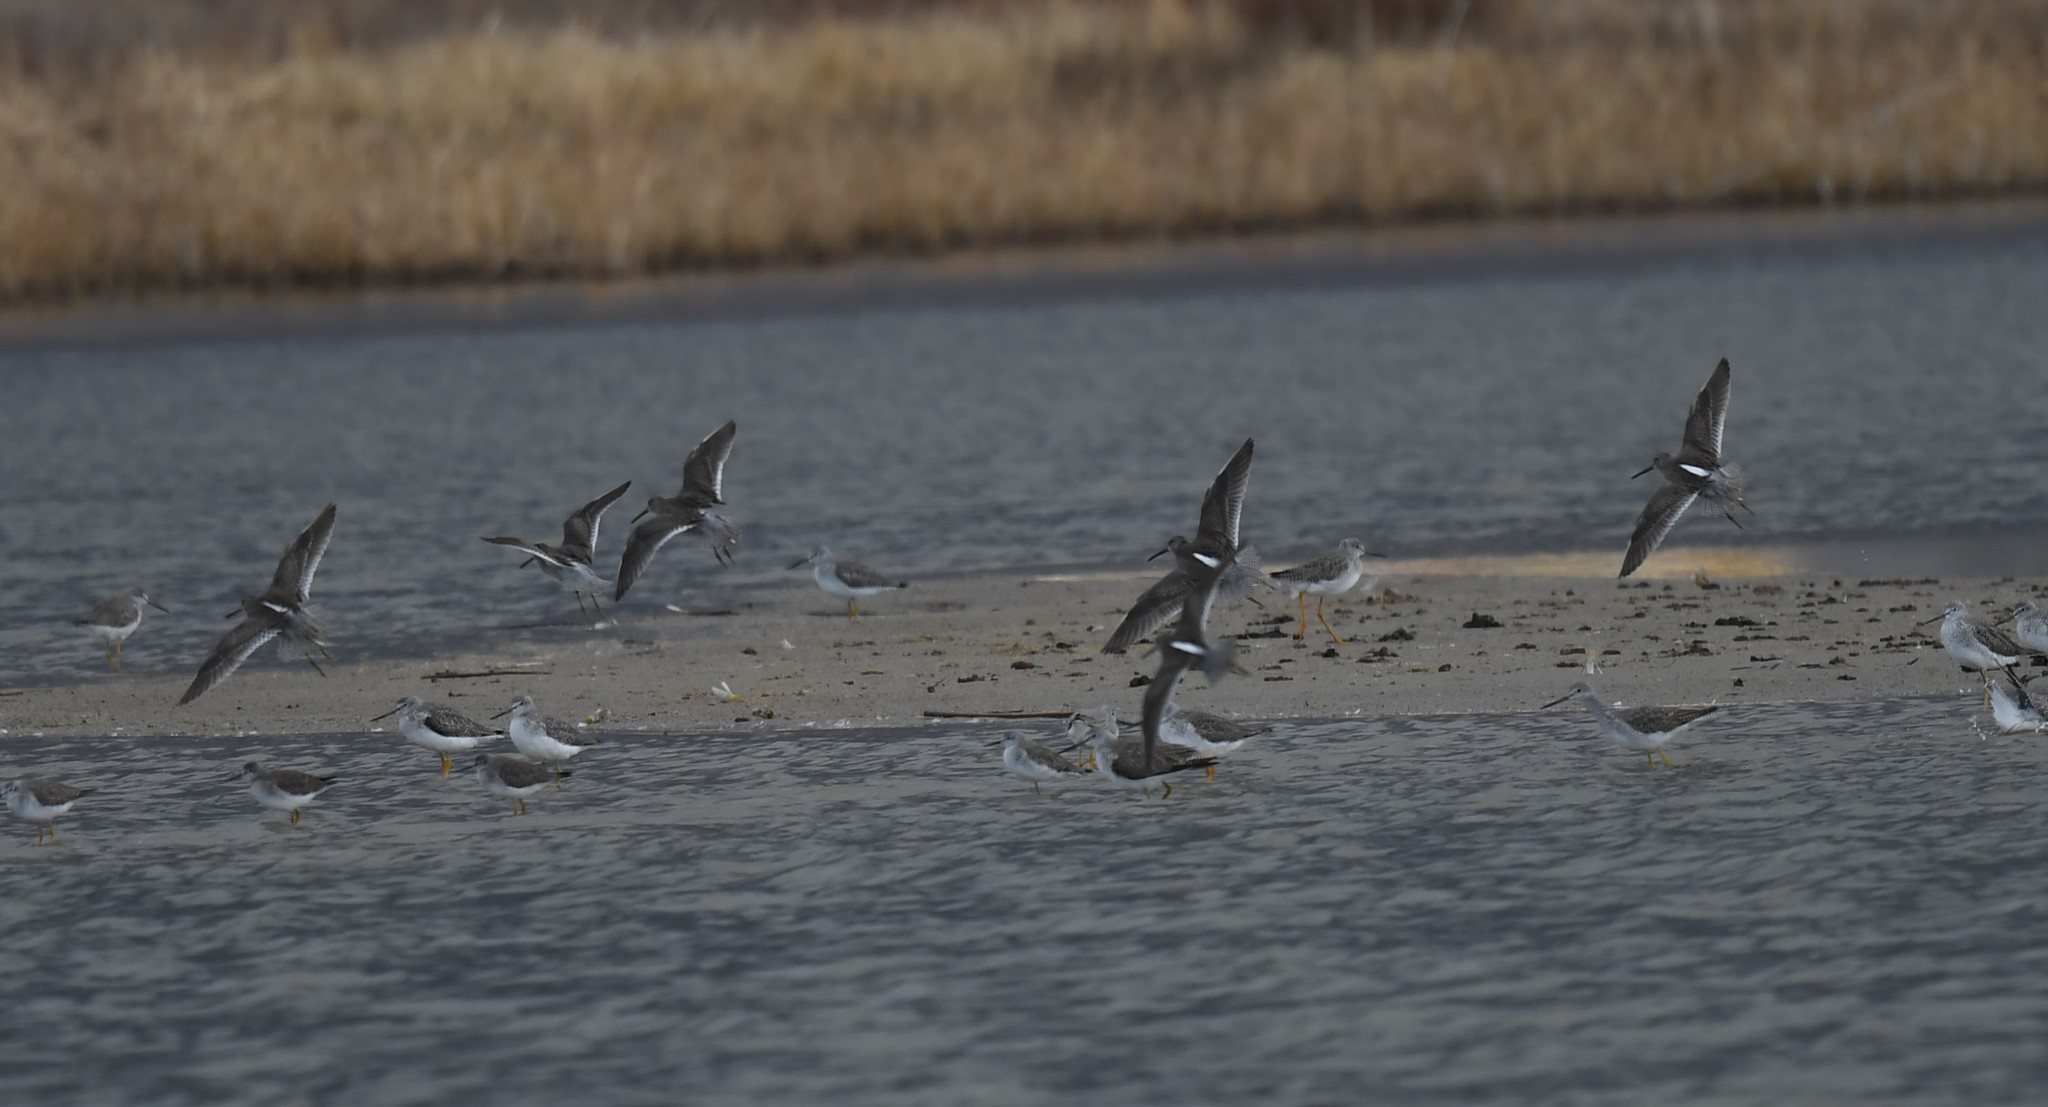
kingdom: Animalia
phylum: Chordata
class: Aves
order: Charadriiformes
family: Scolopacidae
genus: Limnodromus
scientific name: Limnodromus scolopaceus
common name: Long-billed dowitcher
